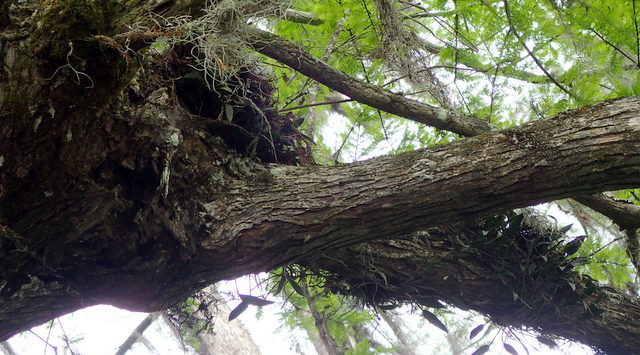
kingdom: Plantae
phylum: Tracheophyta
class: Liliopsida
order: Asparagales
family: Orchidaceae
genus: Epidendrum
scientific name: Epidendrum conopseum
